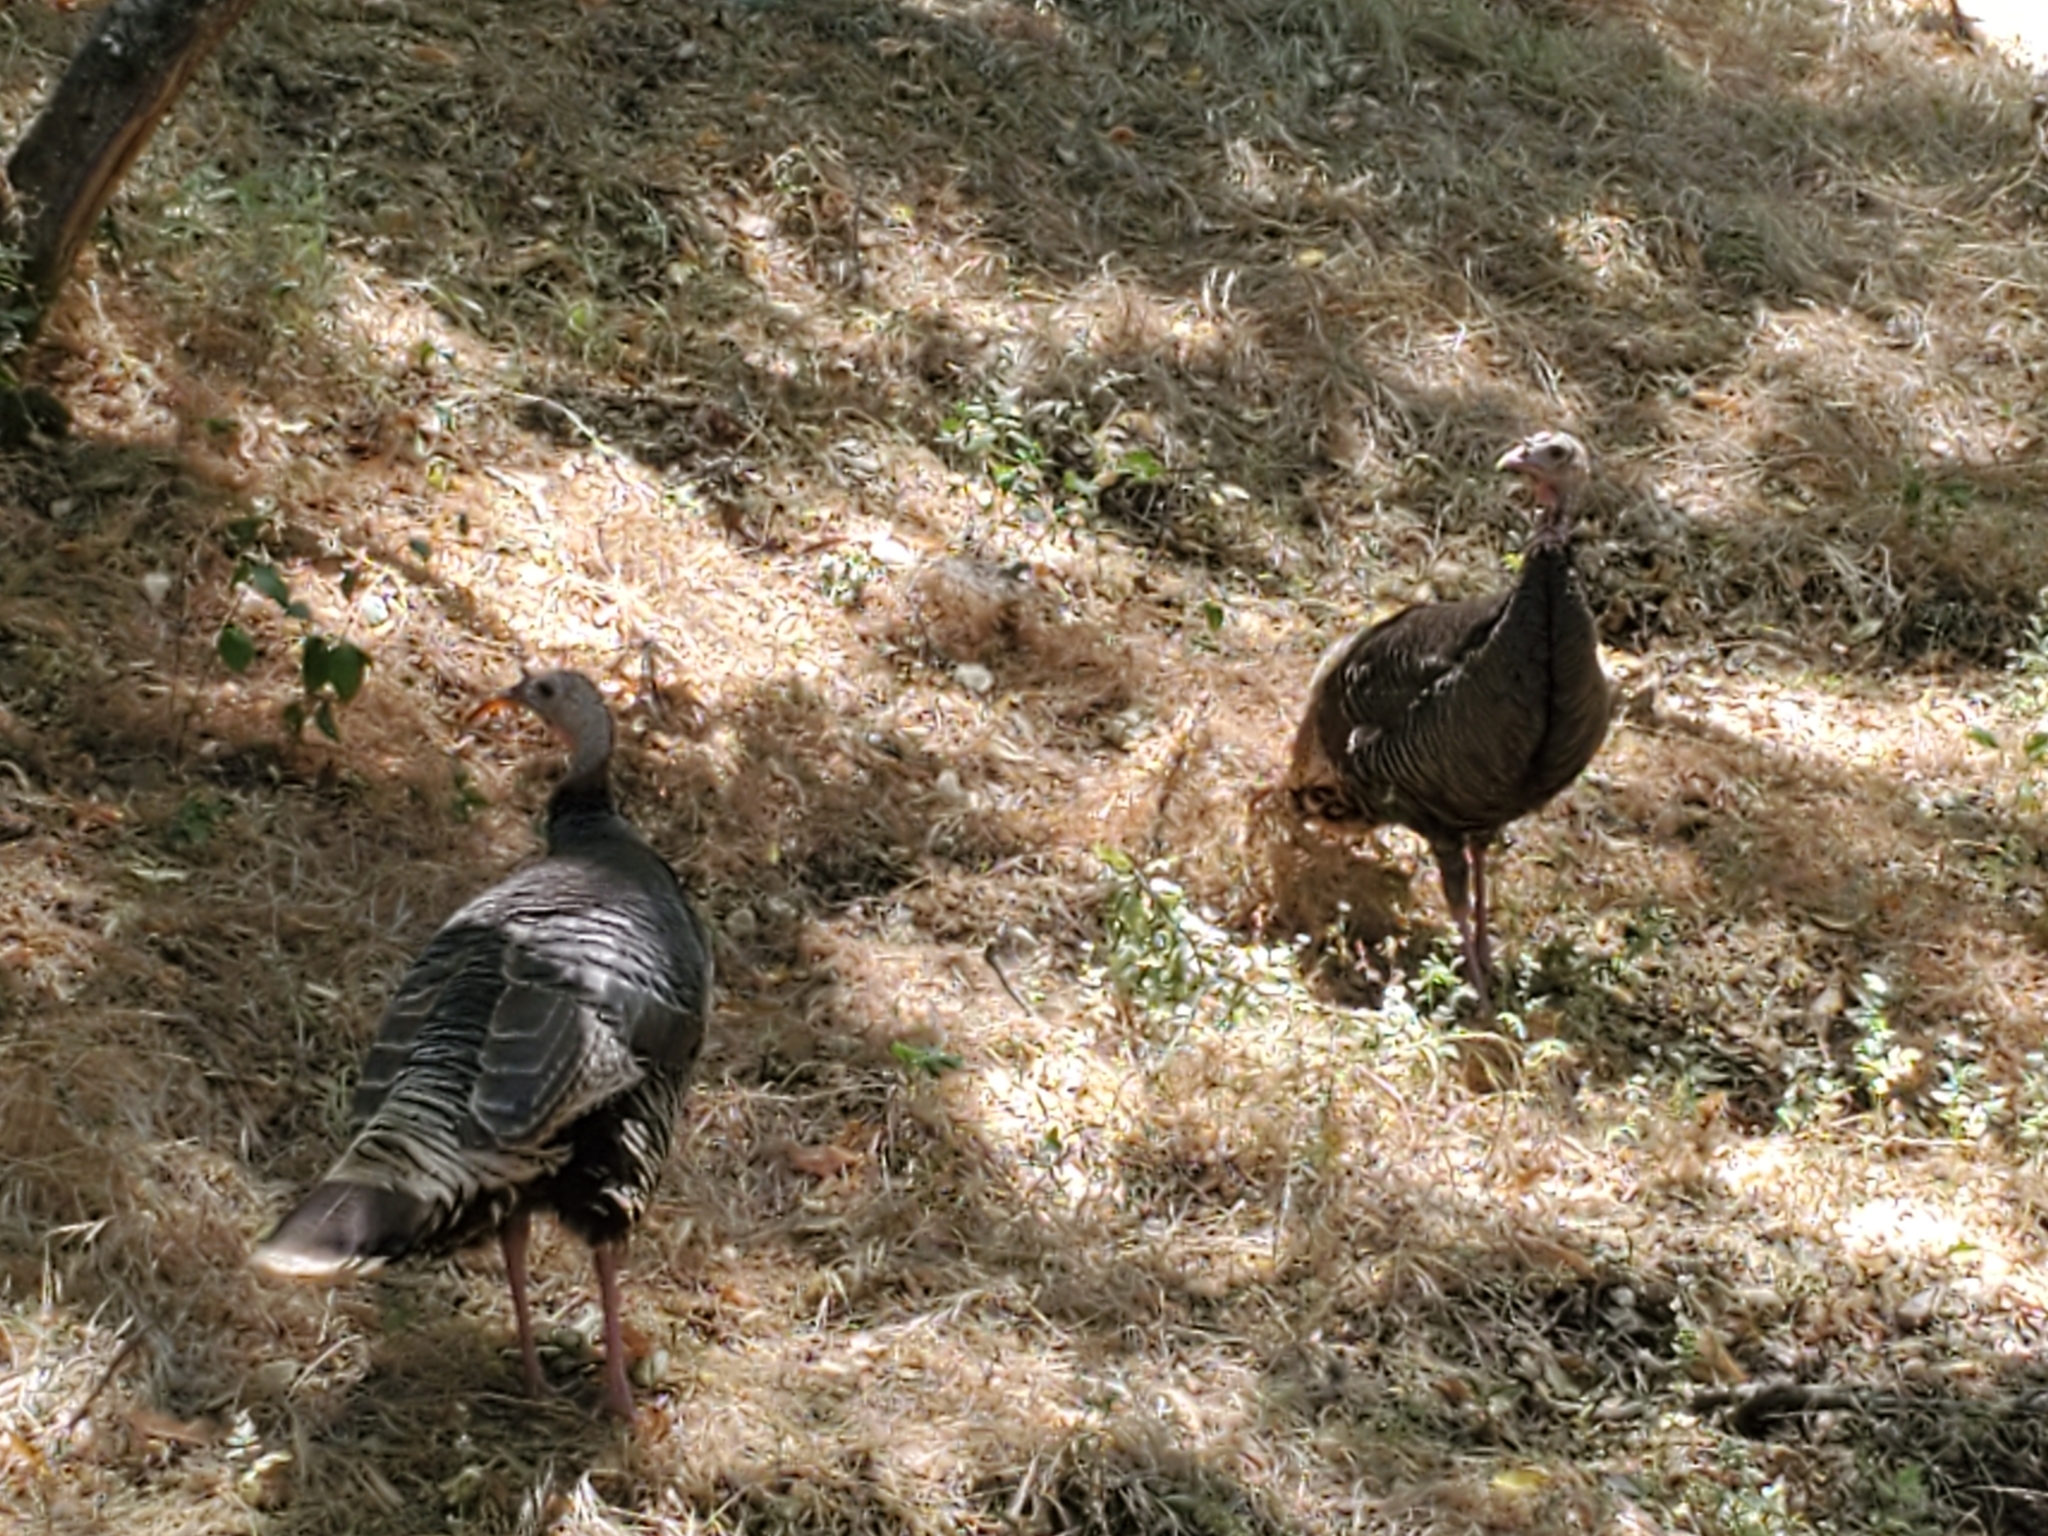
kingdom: Animalia
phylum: Chordata
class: Aves
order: Galliformes
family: Phasianidae
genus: Meleagris
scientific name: Meleagris gallopavo
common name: Wild turkey
